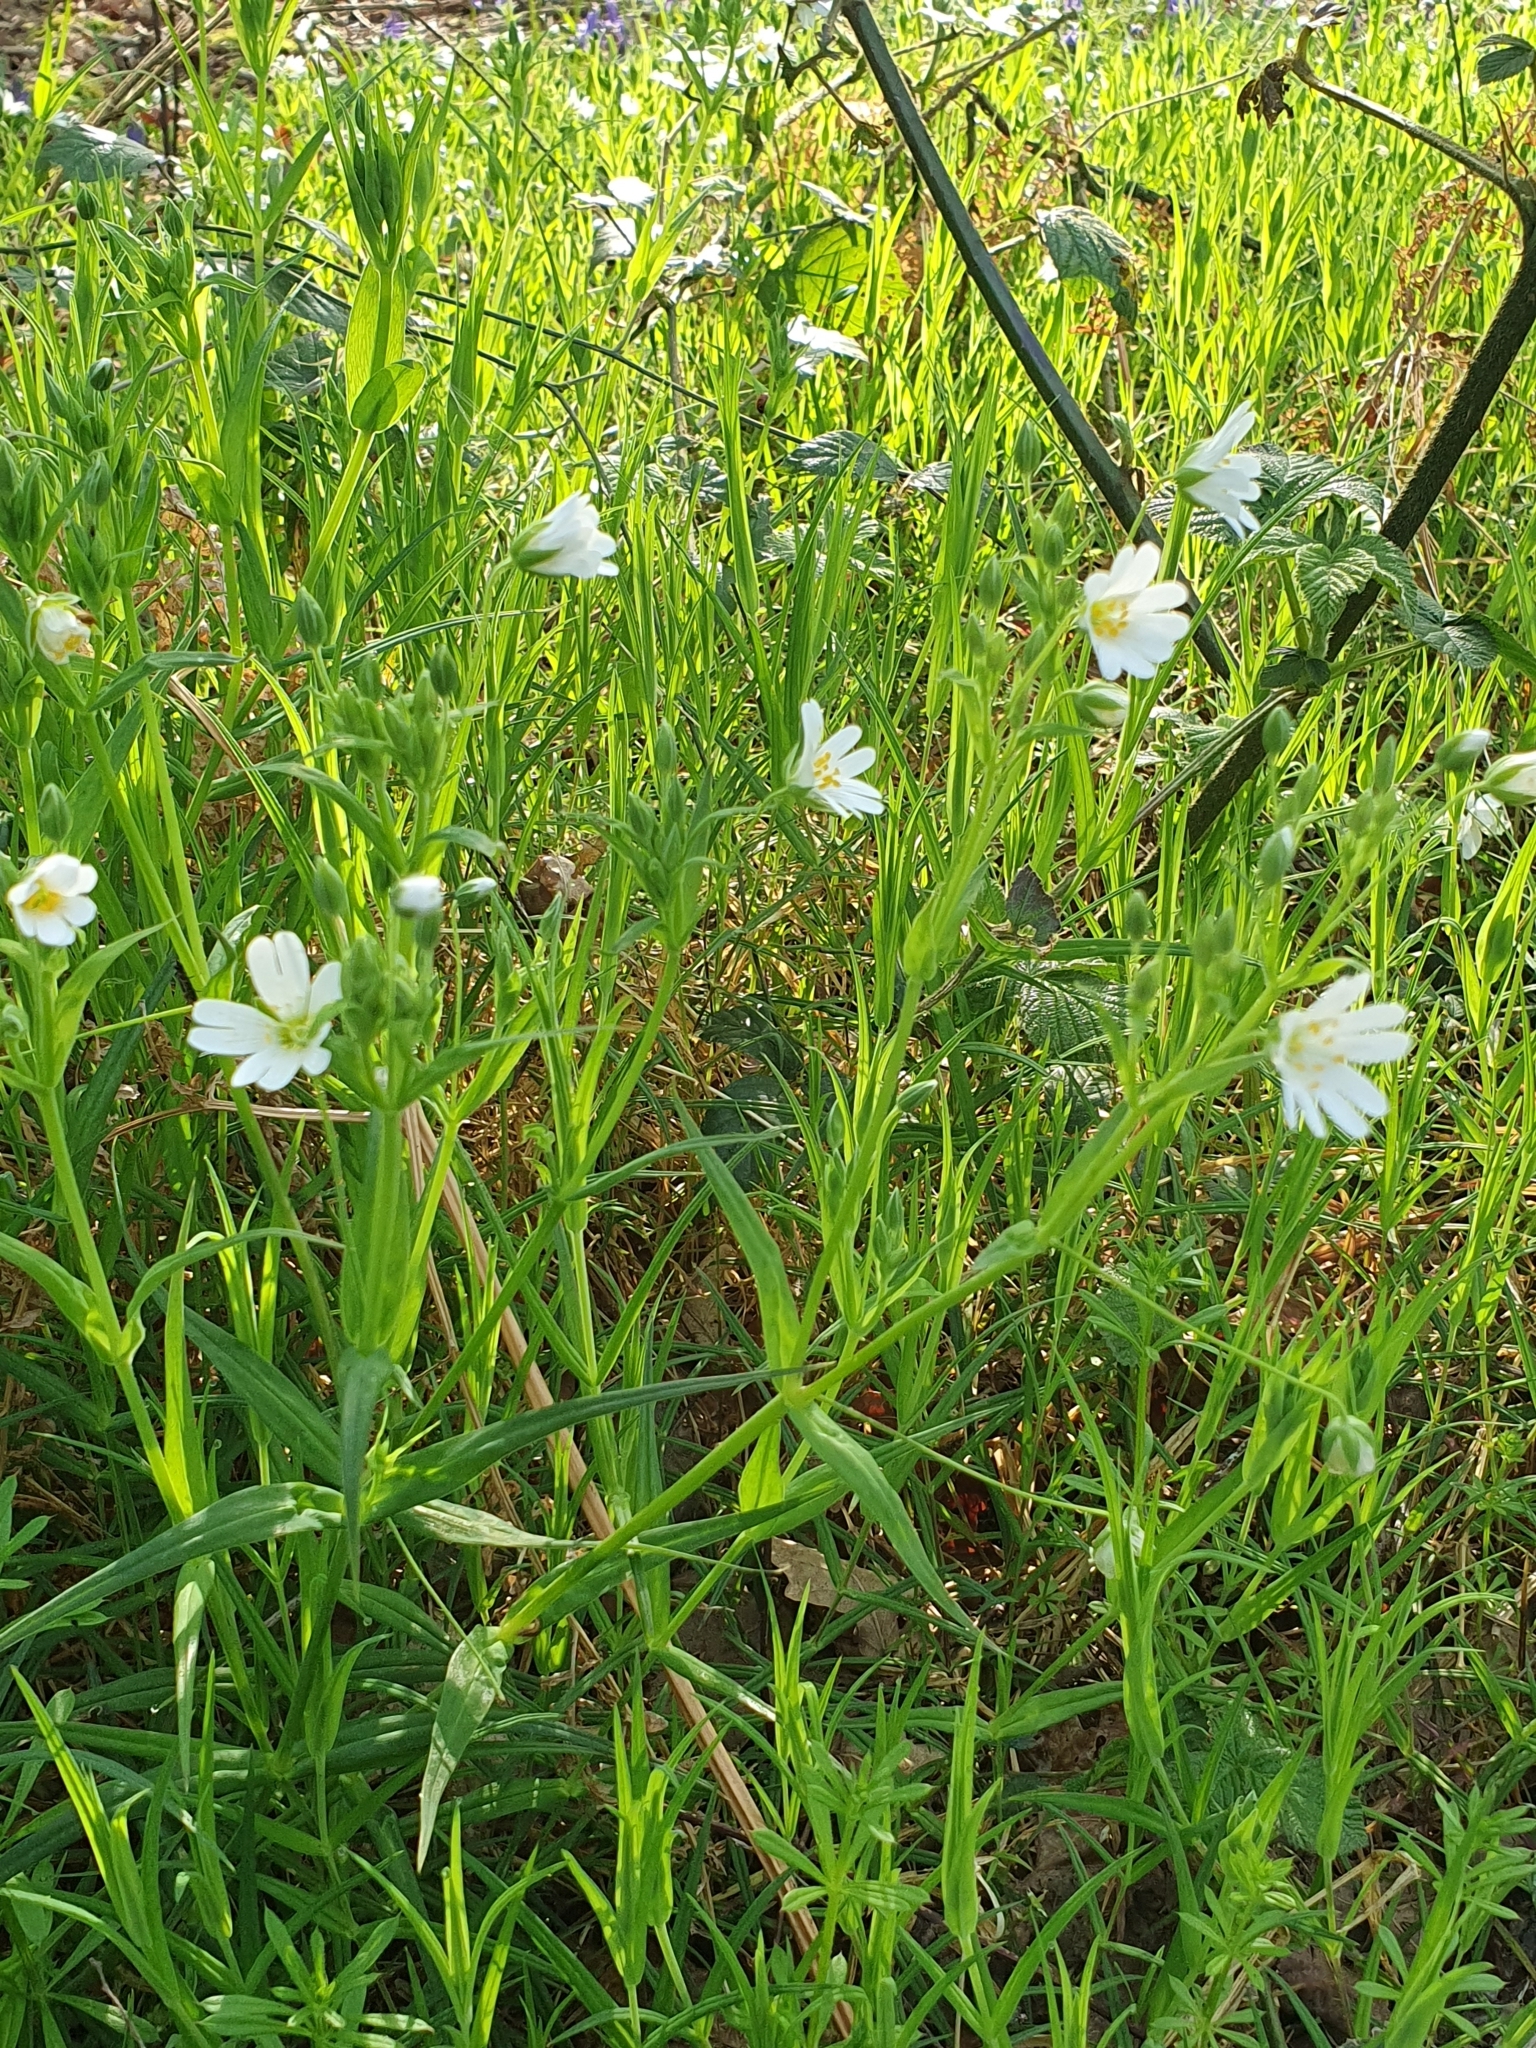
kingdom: Plantae
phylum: Tracheophyta
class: Magnoliopsida
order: Caryophyllales
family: Caryophyllaceae
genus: Rabelera
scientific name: Rabelera holostea
